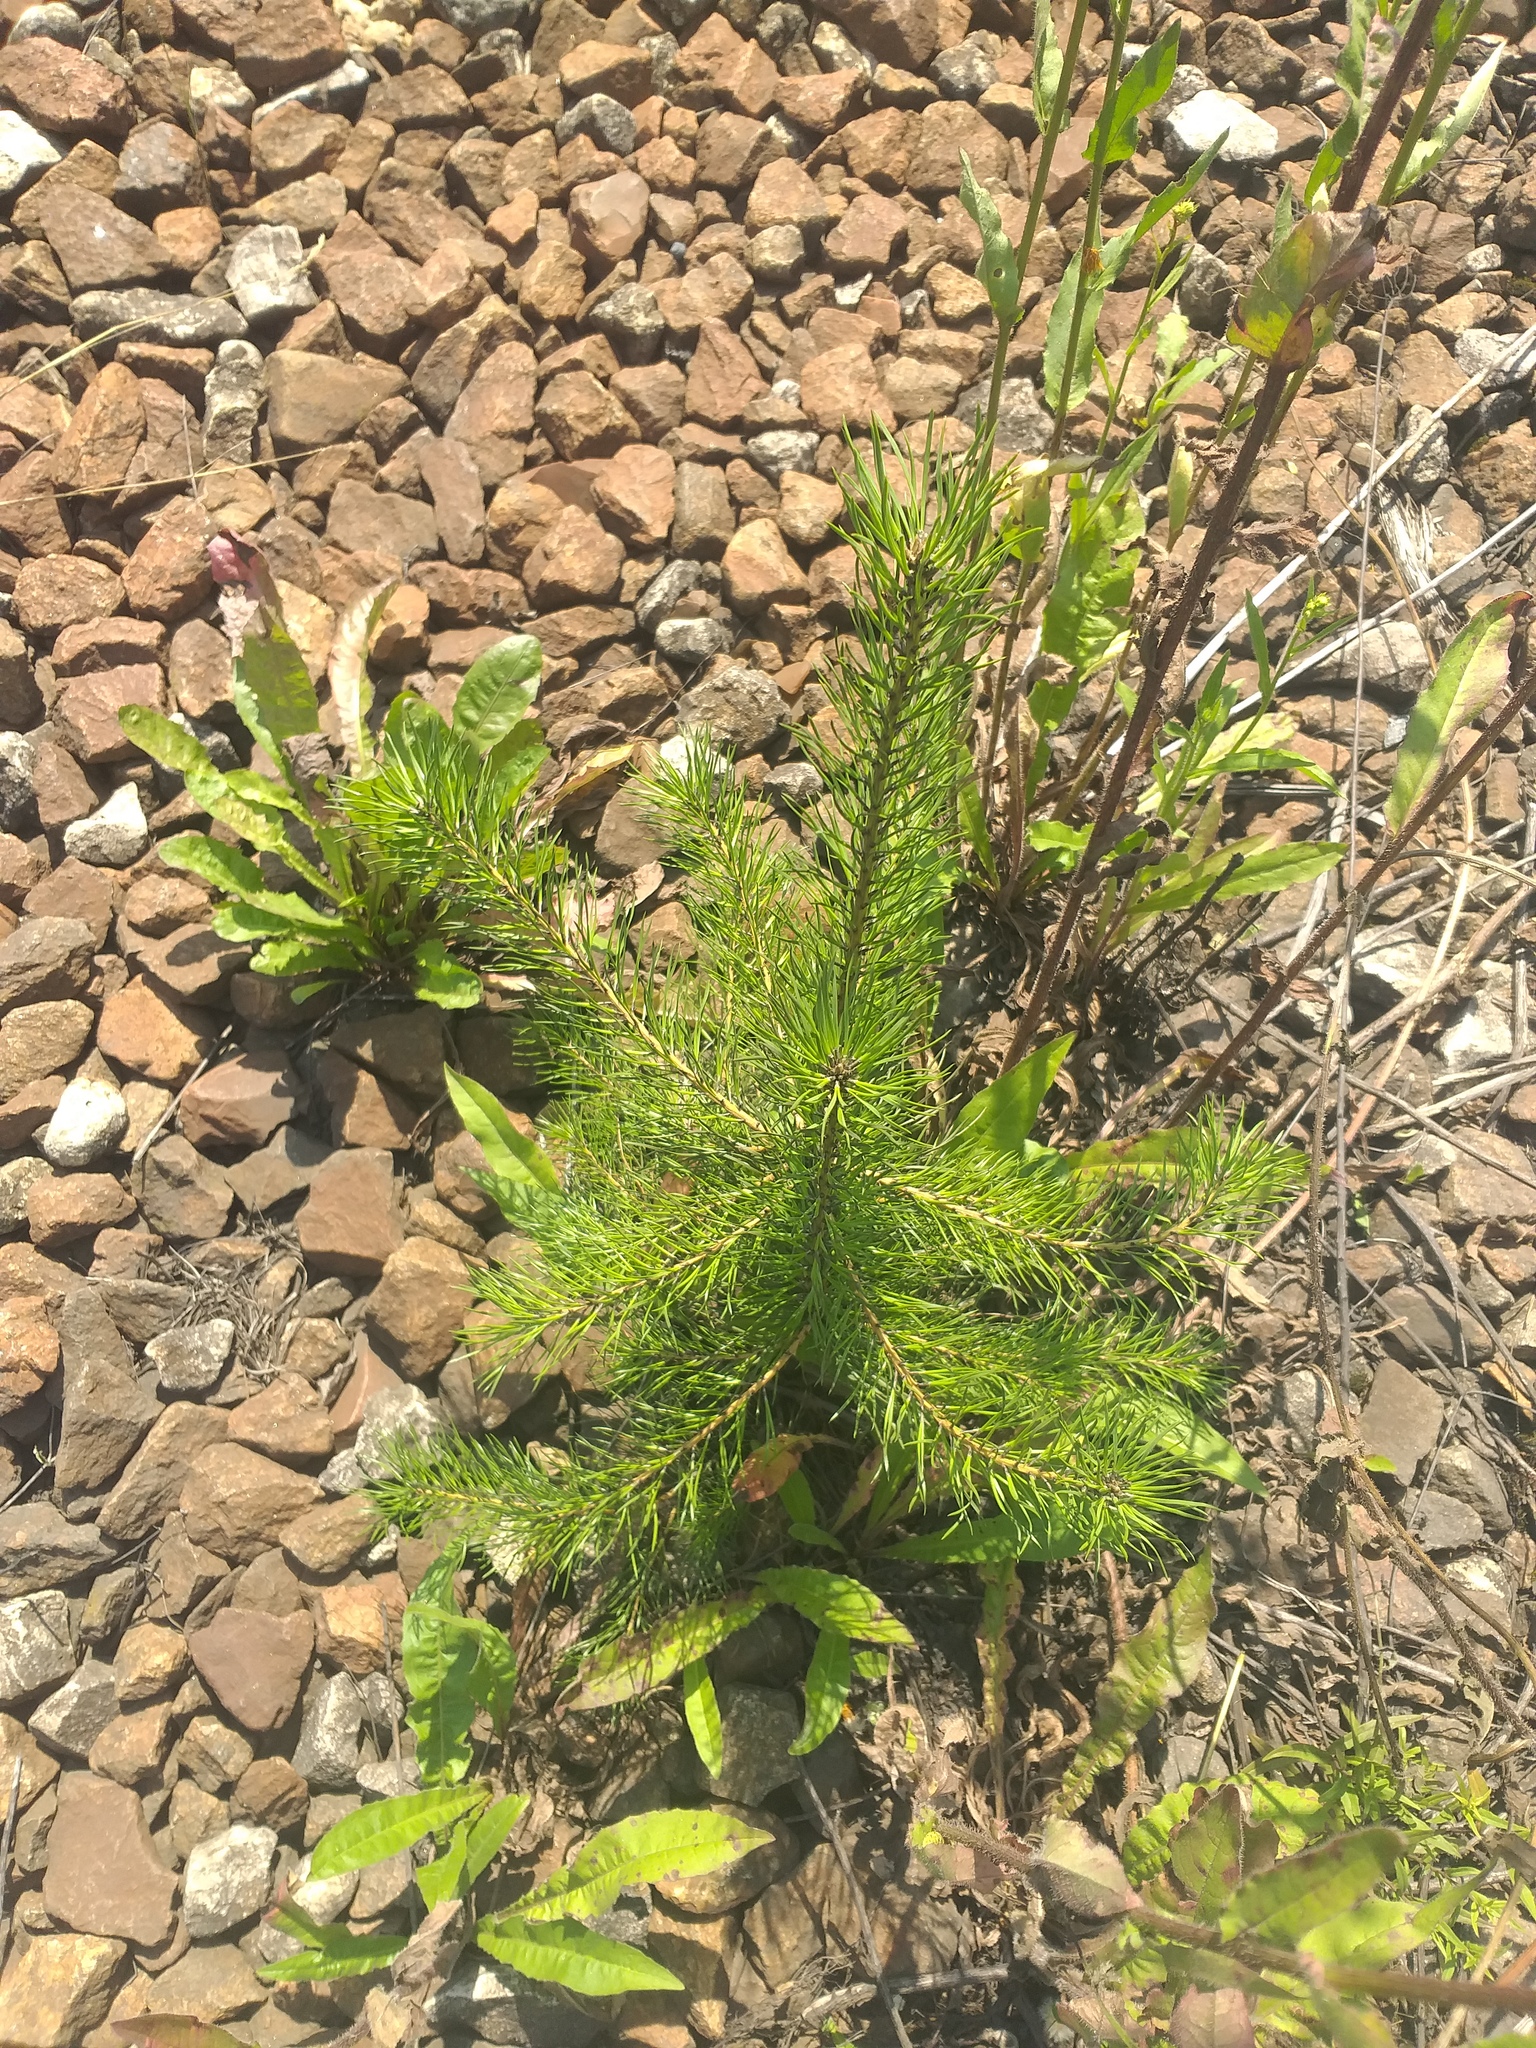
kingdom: Plantae
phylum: Tracheophyta
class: Pinopsida
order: Pinales
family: Pinaceae
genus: Pinus
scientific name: Pinus sylvestris
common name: Scots pine
